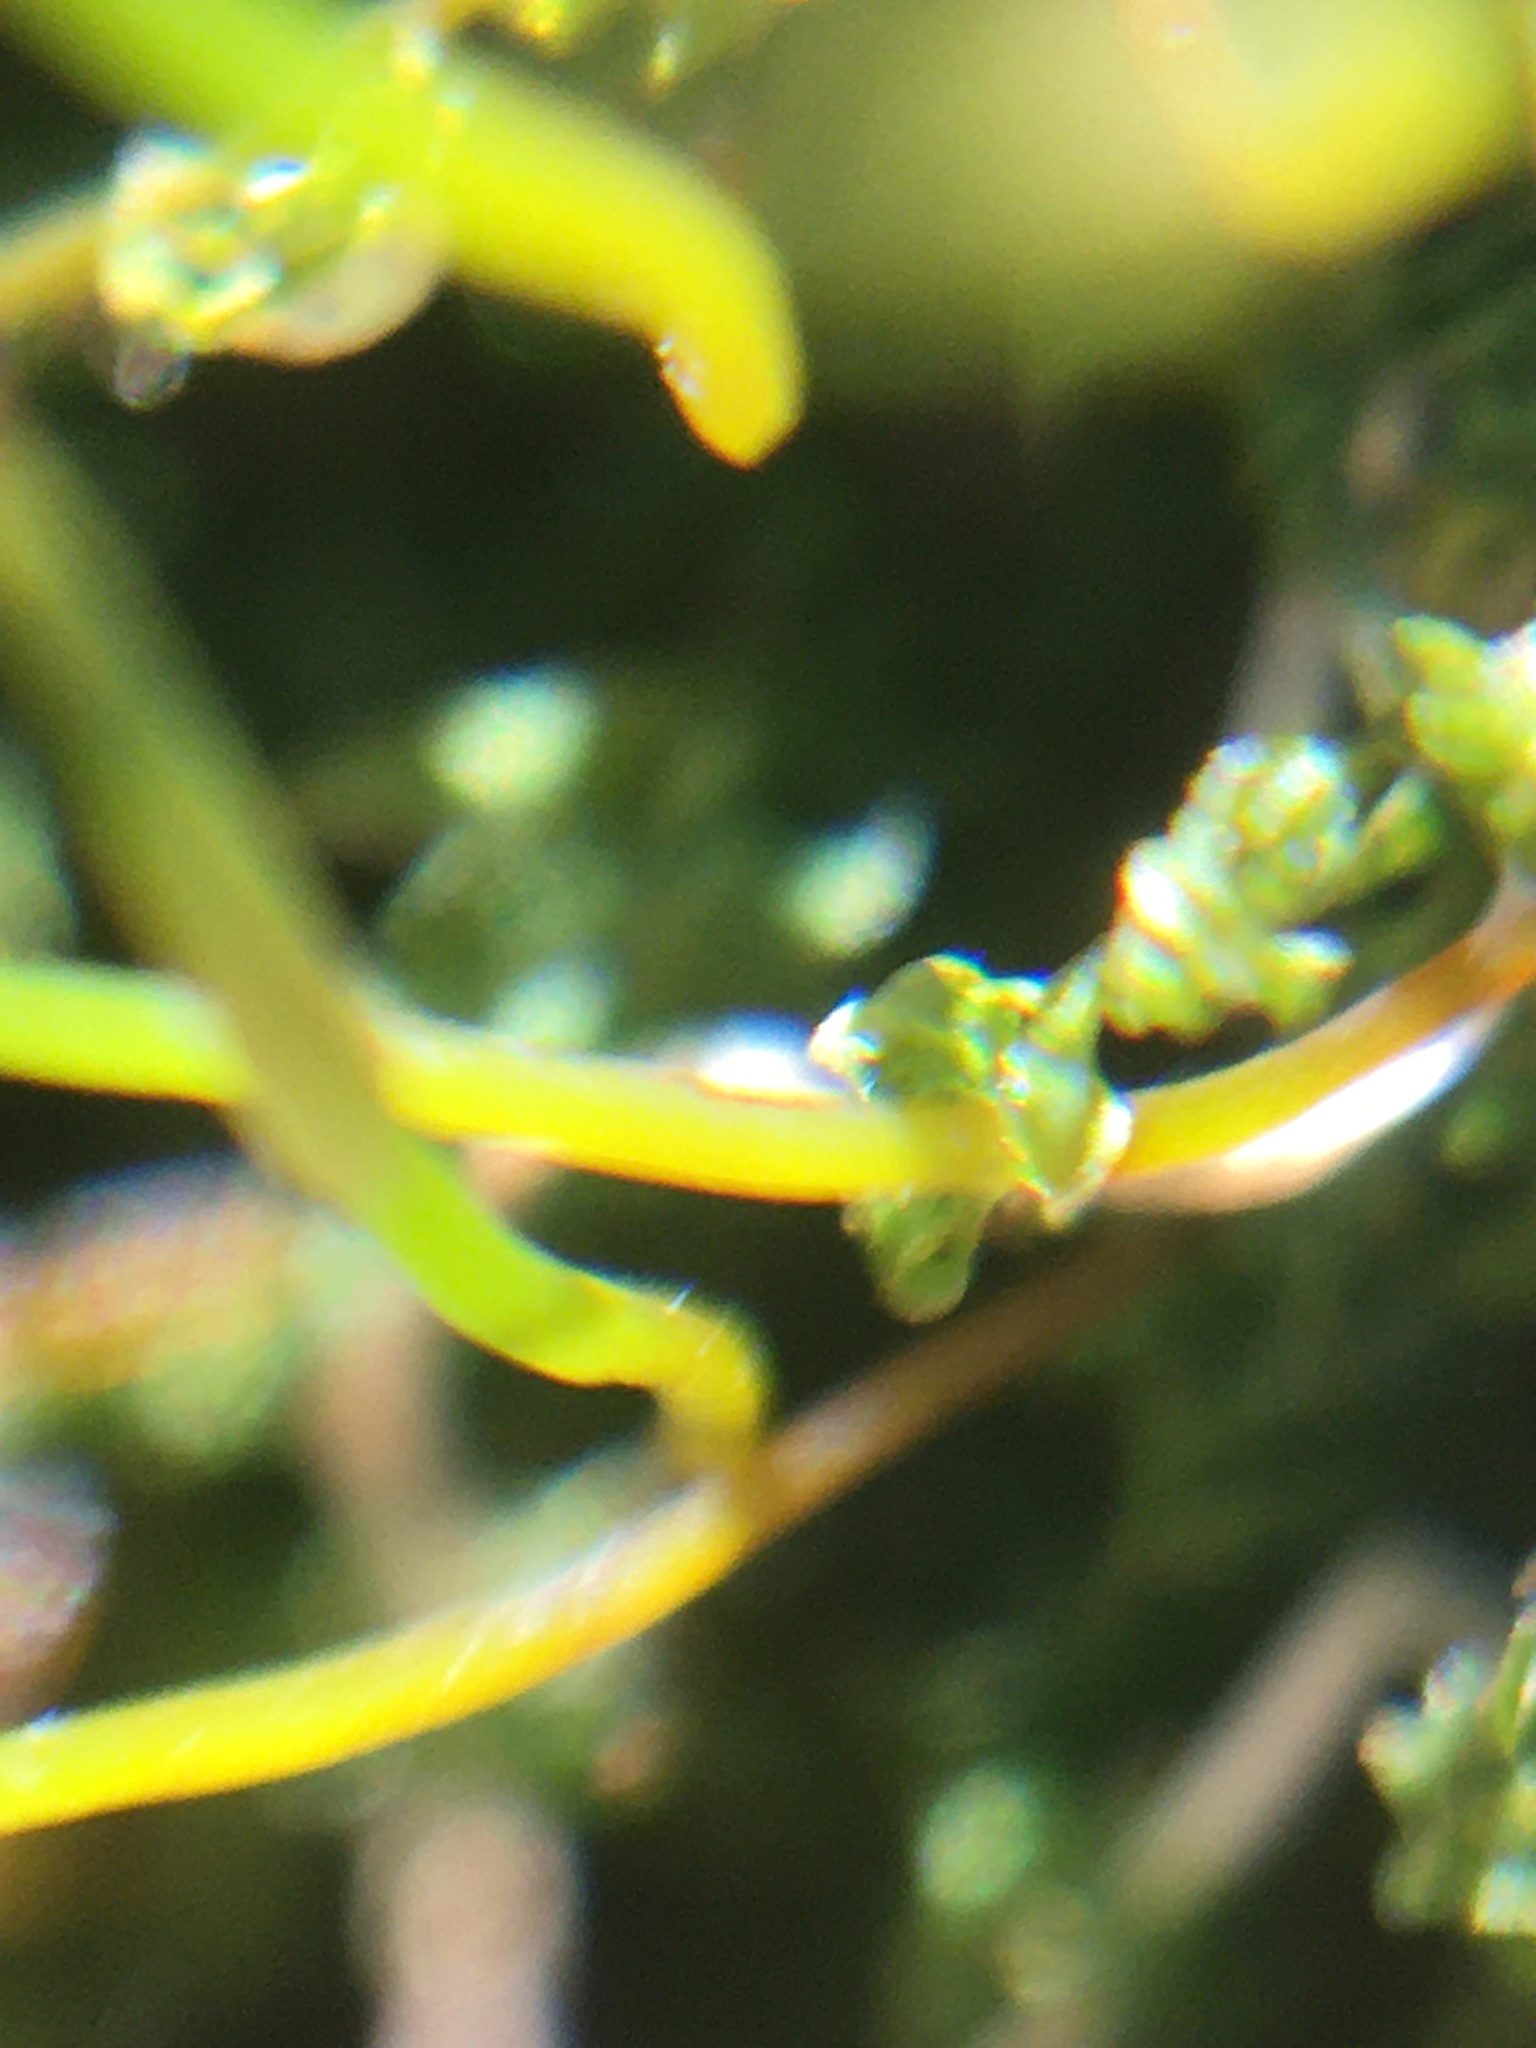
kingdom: Plantae
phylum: Bryophyta
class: Bryopsida
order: Bryales
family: Mniaceae
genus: Plagiomnium
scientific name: Plagiomnium cuspidatum
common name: Woodsy leafy moss
